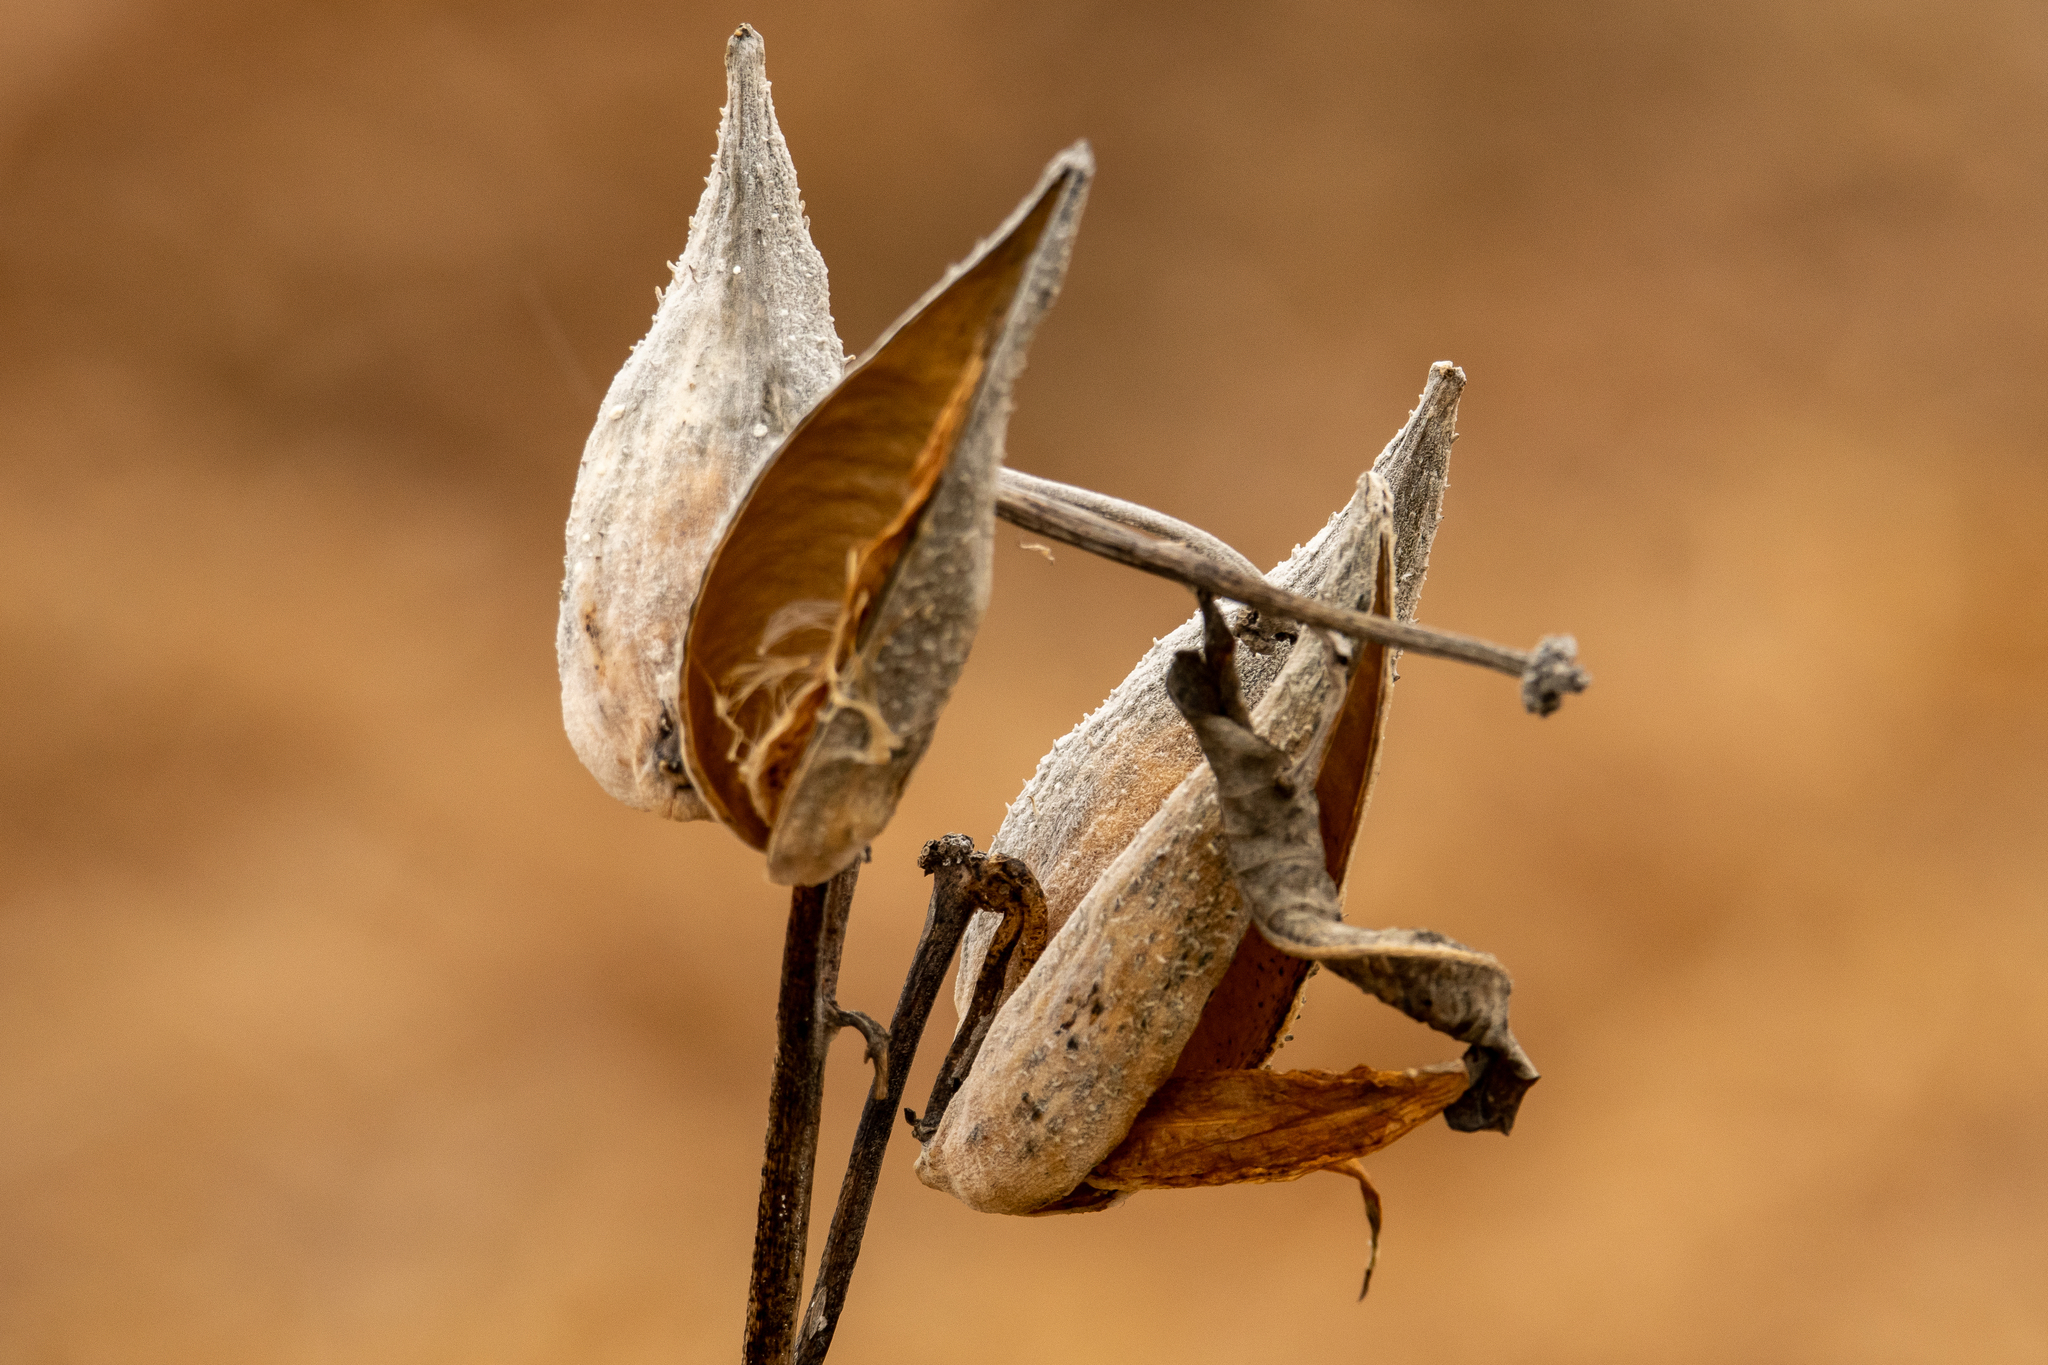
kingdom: Plantae
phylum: Tracheophyta
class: Magnoliopsida
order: Gentianales
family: Apocynaceae
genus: Asclepias
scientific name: Asclepias syriaca
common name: Common milkweed
